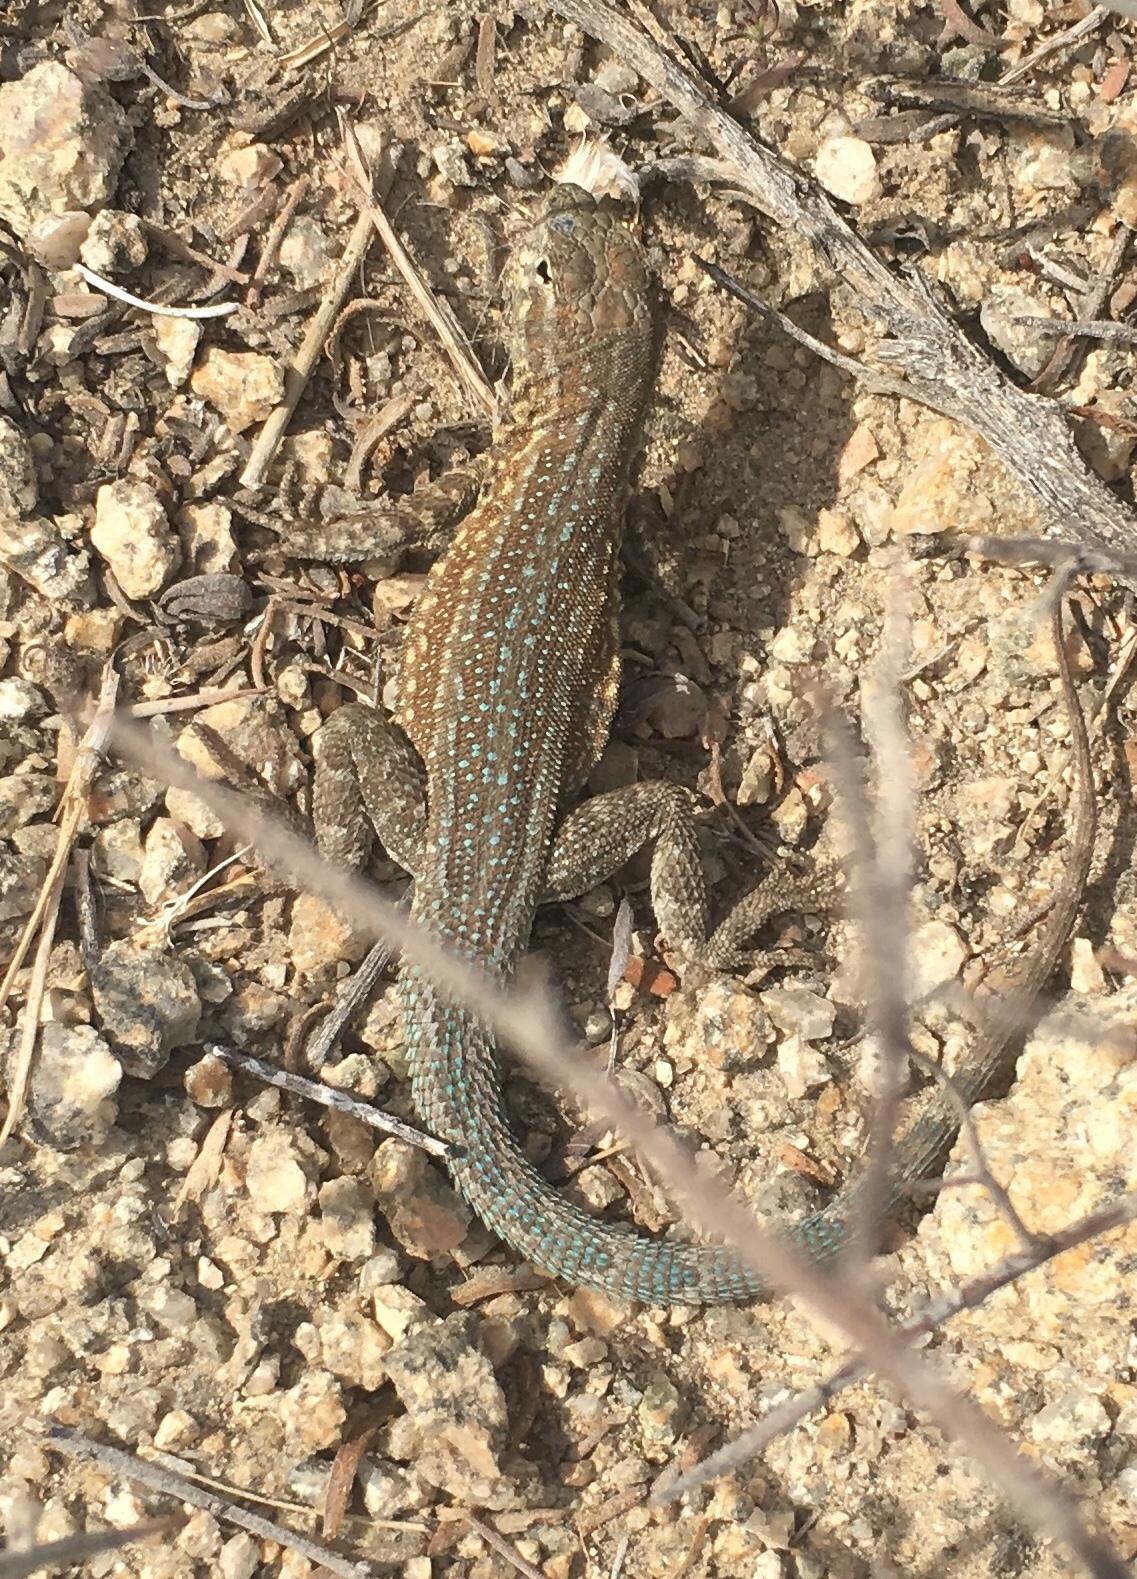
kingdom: Animalia
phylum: Chordata
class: Squamata
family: Phrynosomatidae
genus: Uta
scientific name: Uta stansburiana
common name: Side-blotched lizard
